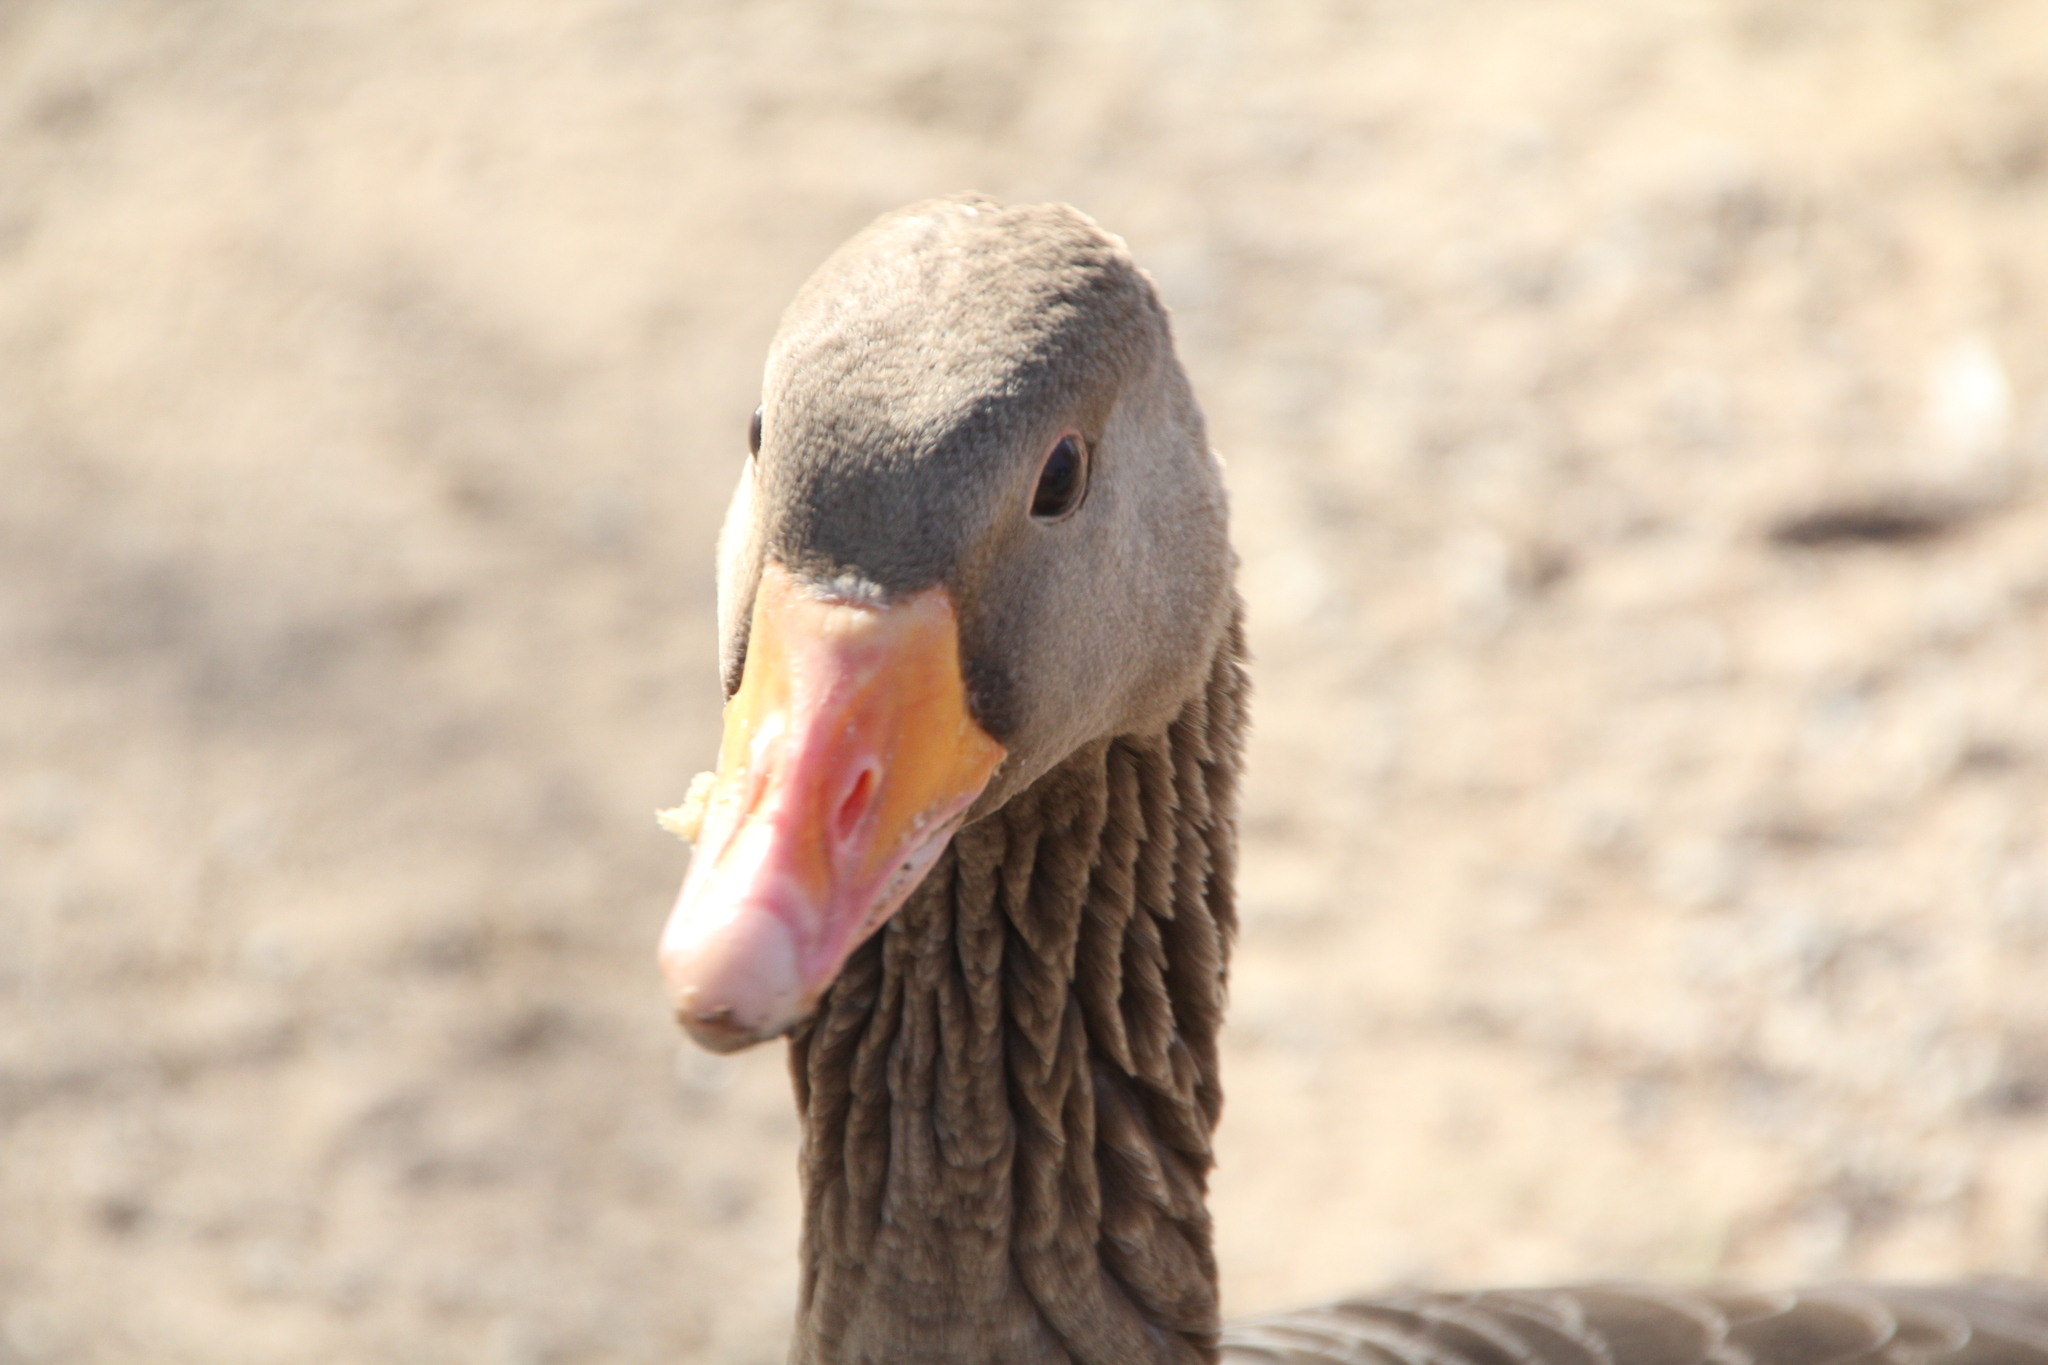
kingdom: Animalia
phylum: Chordata
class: Aves
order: Anseriformes
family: Anatidae
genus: Anser
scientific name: Anser anser
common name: Greylag goose
